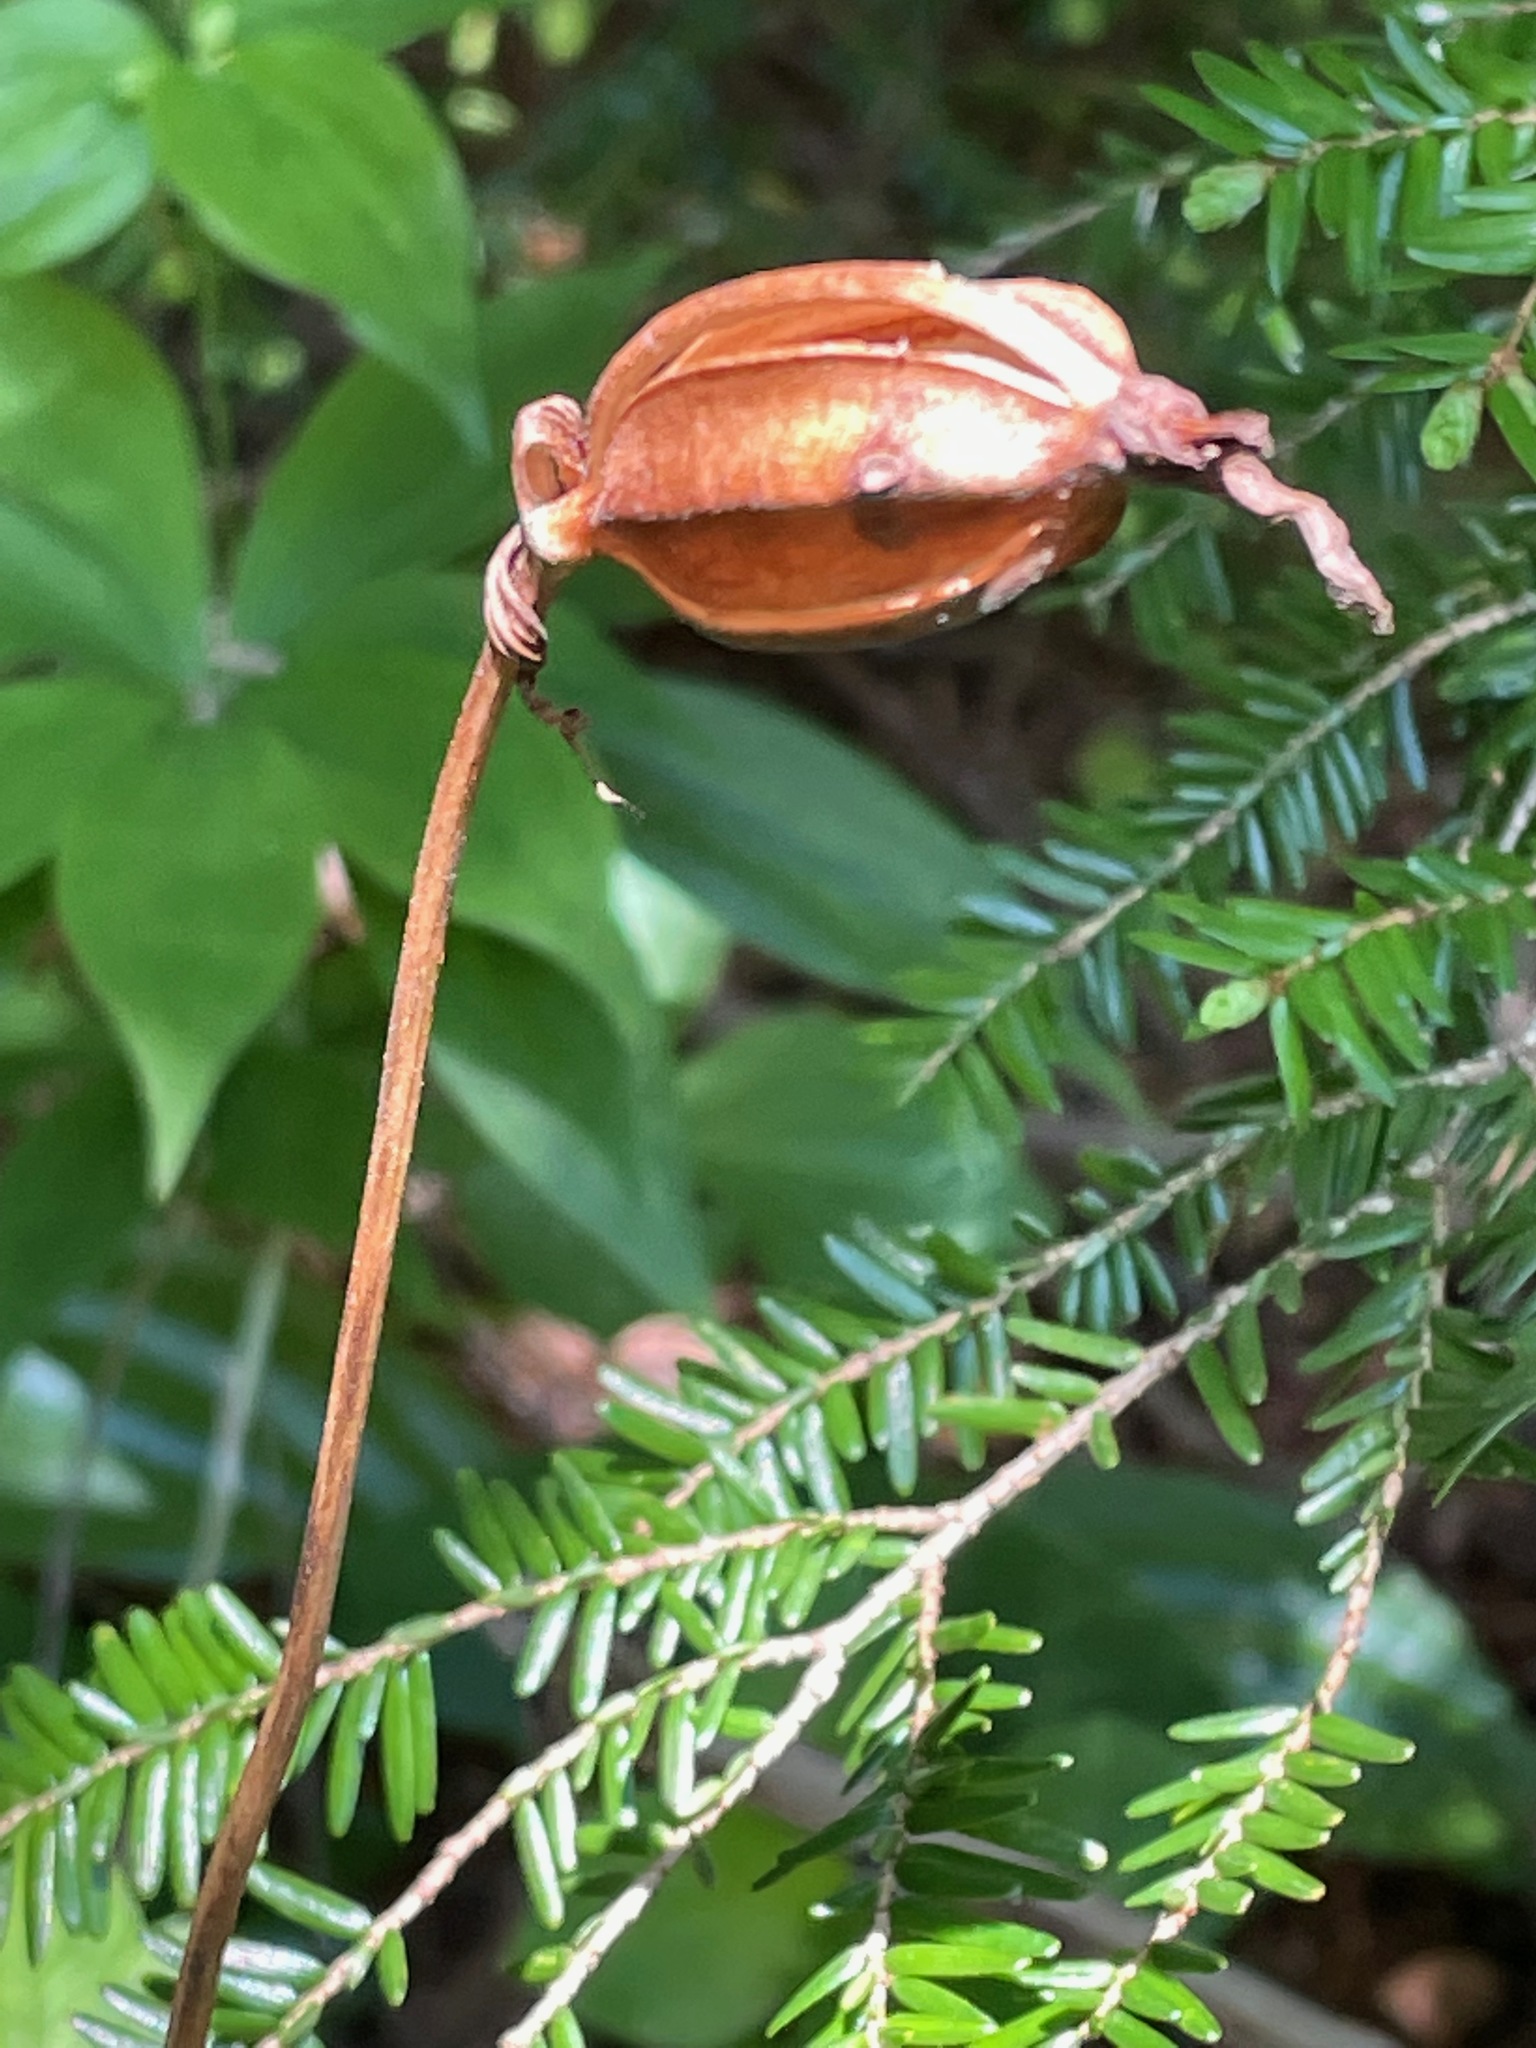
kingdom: Plantae
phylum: Tracheophyta
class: Liliopsida
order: Asparagales
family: Orchidaceae
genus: Cypripedium
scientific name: Cypripedium acaule
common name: Pink lady's-slipper
